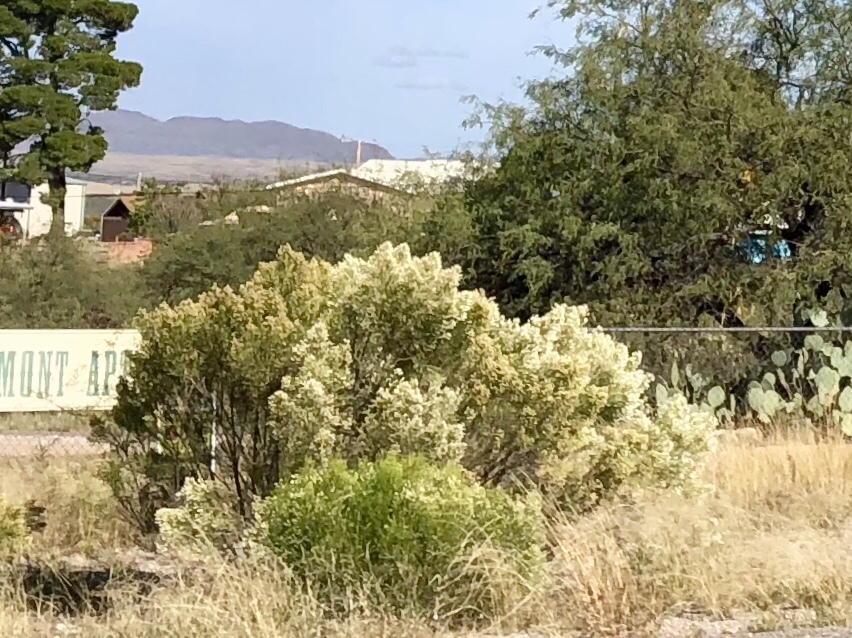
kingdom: Plantae
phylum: Tracheophyta
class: Magnoliopsida
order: Asterales
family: Asteraceae
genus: Baccharis
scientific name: Baccharis sarothroides
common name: Desert-broom
